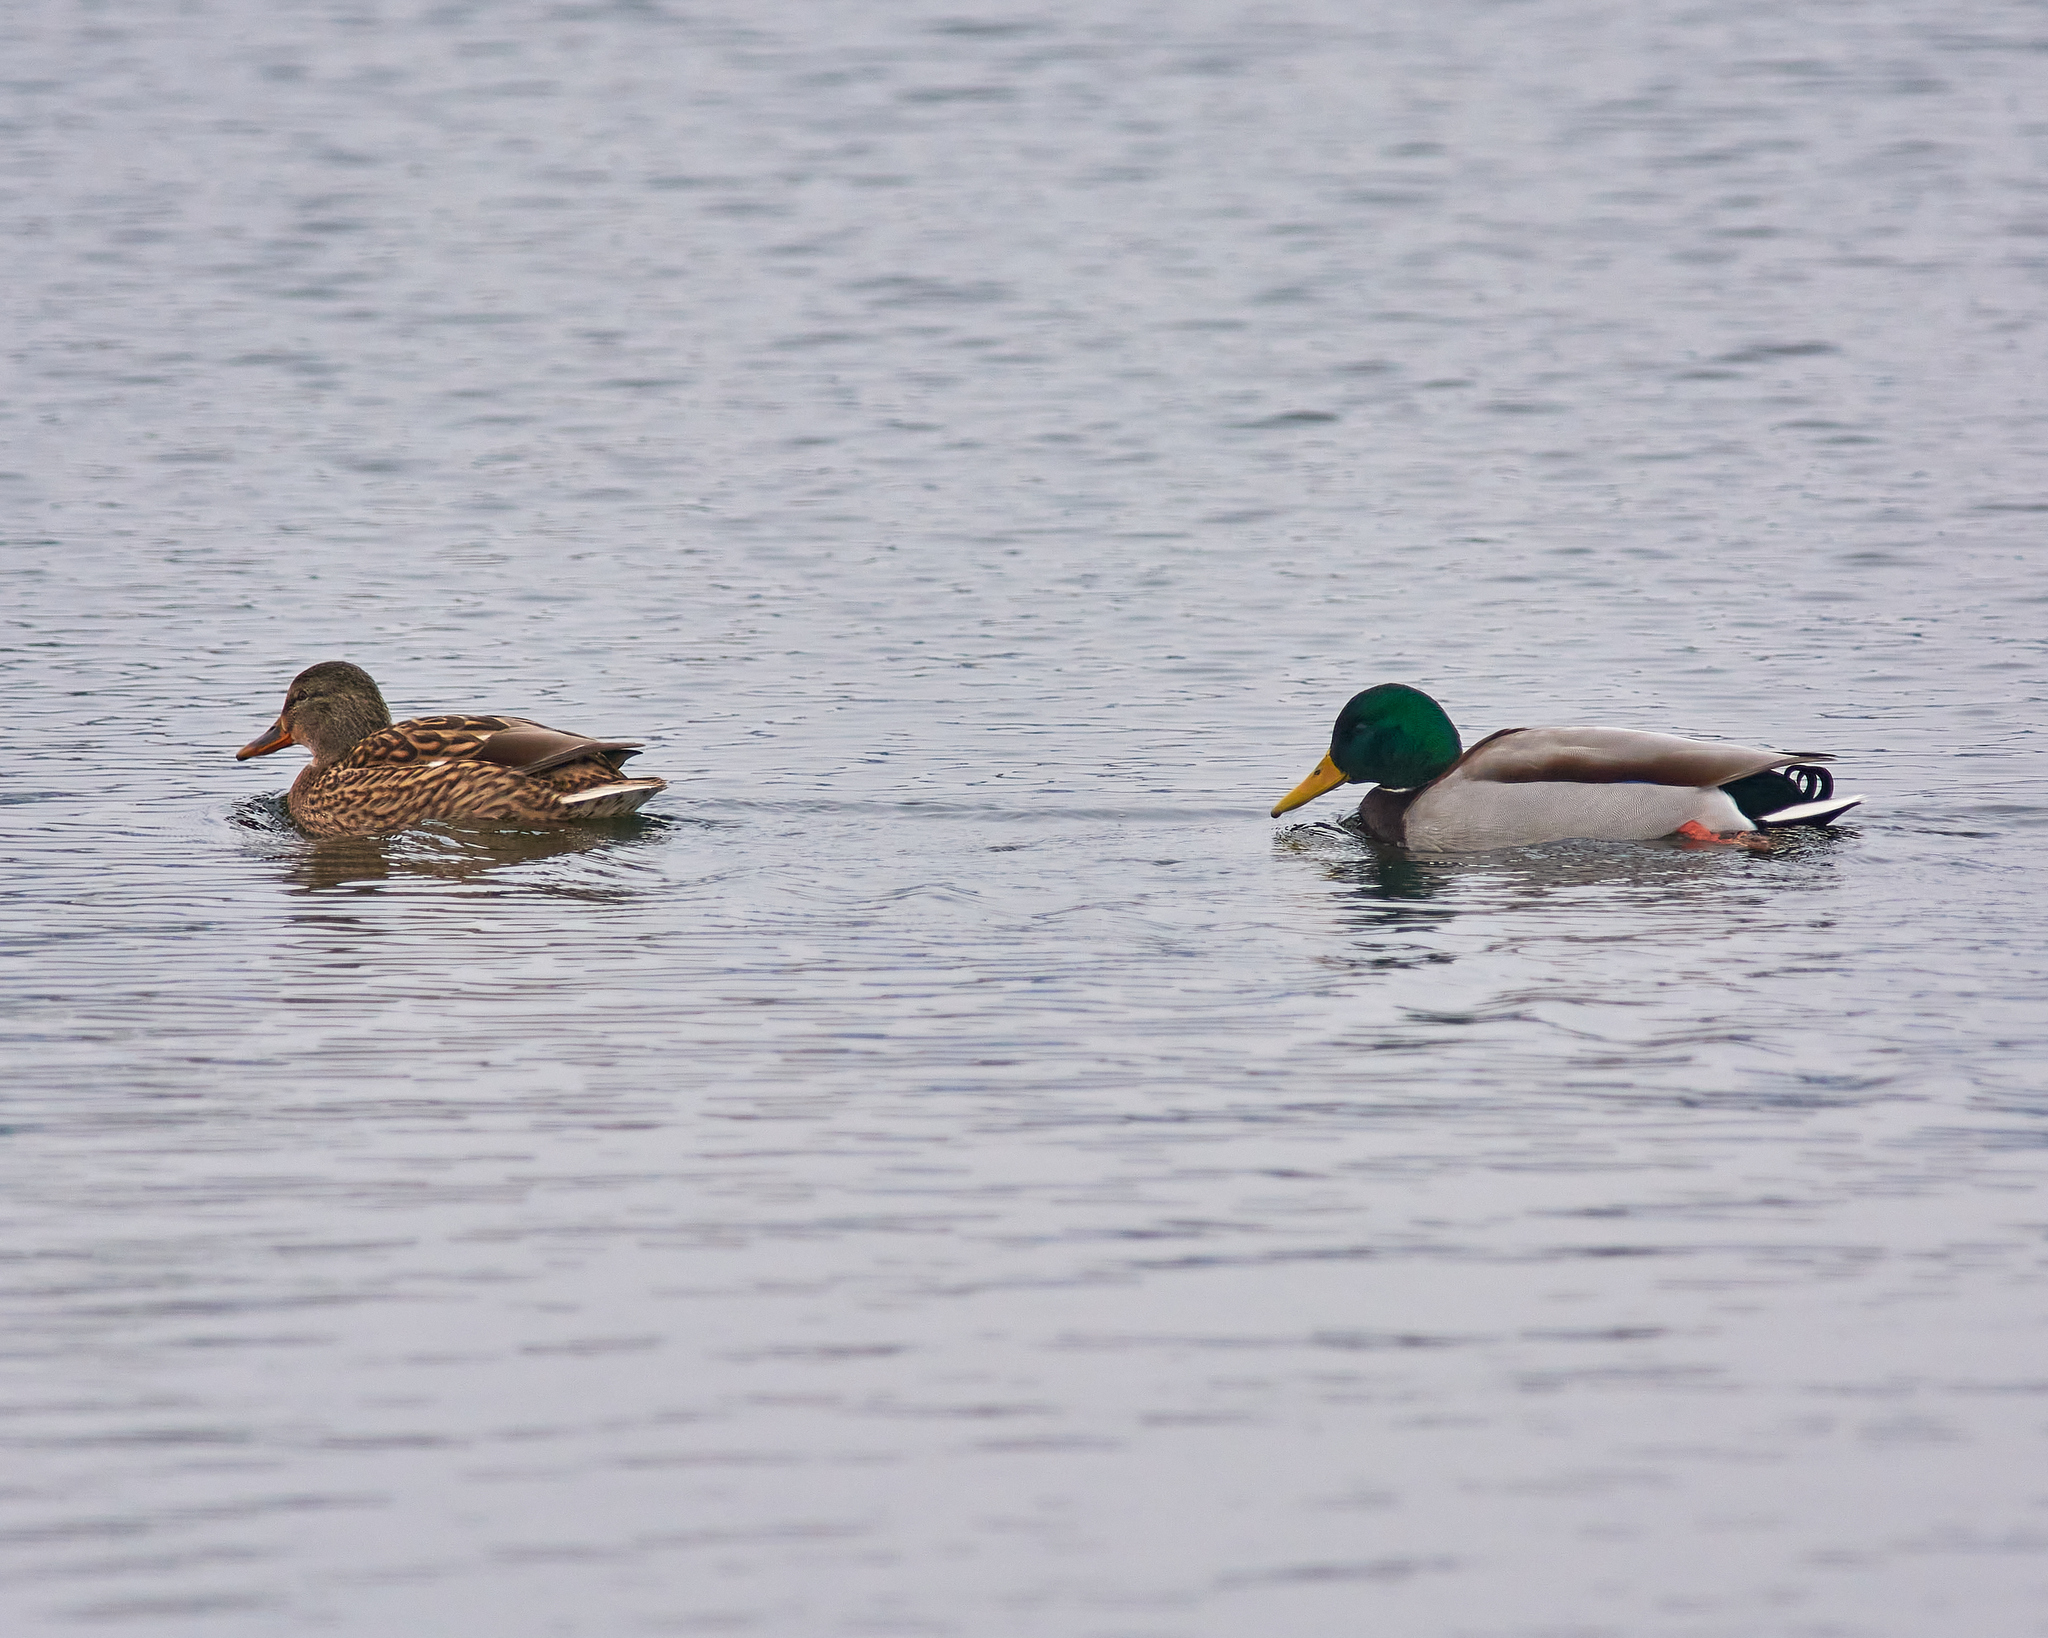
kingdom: Animalia
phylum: Chordata
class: Aves
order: Anseriformes
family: Anatidae
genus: Anas
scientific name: Anas platyrhynchos
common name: Mallard
